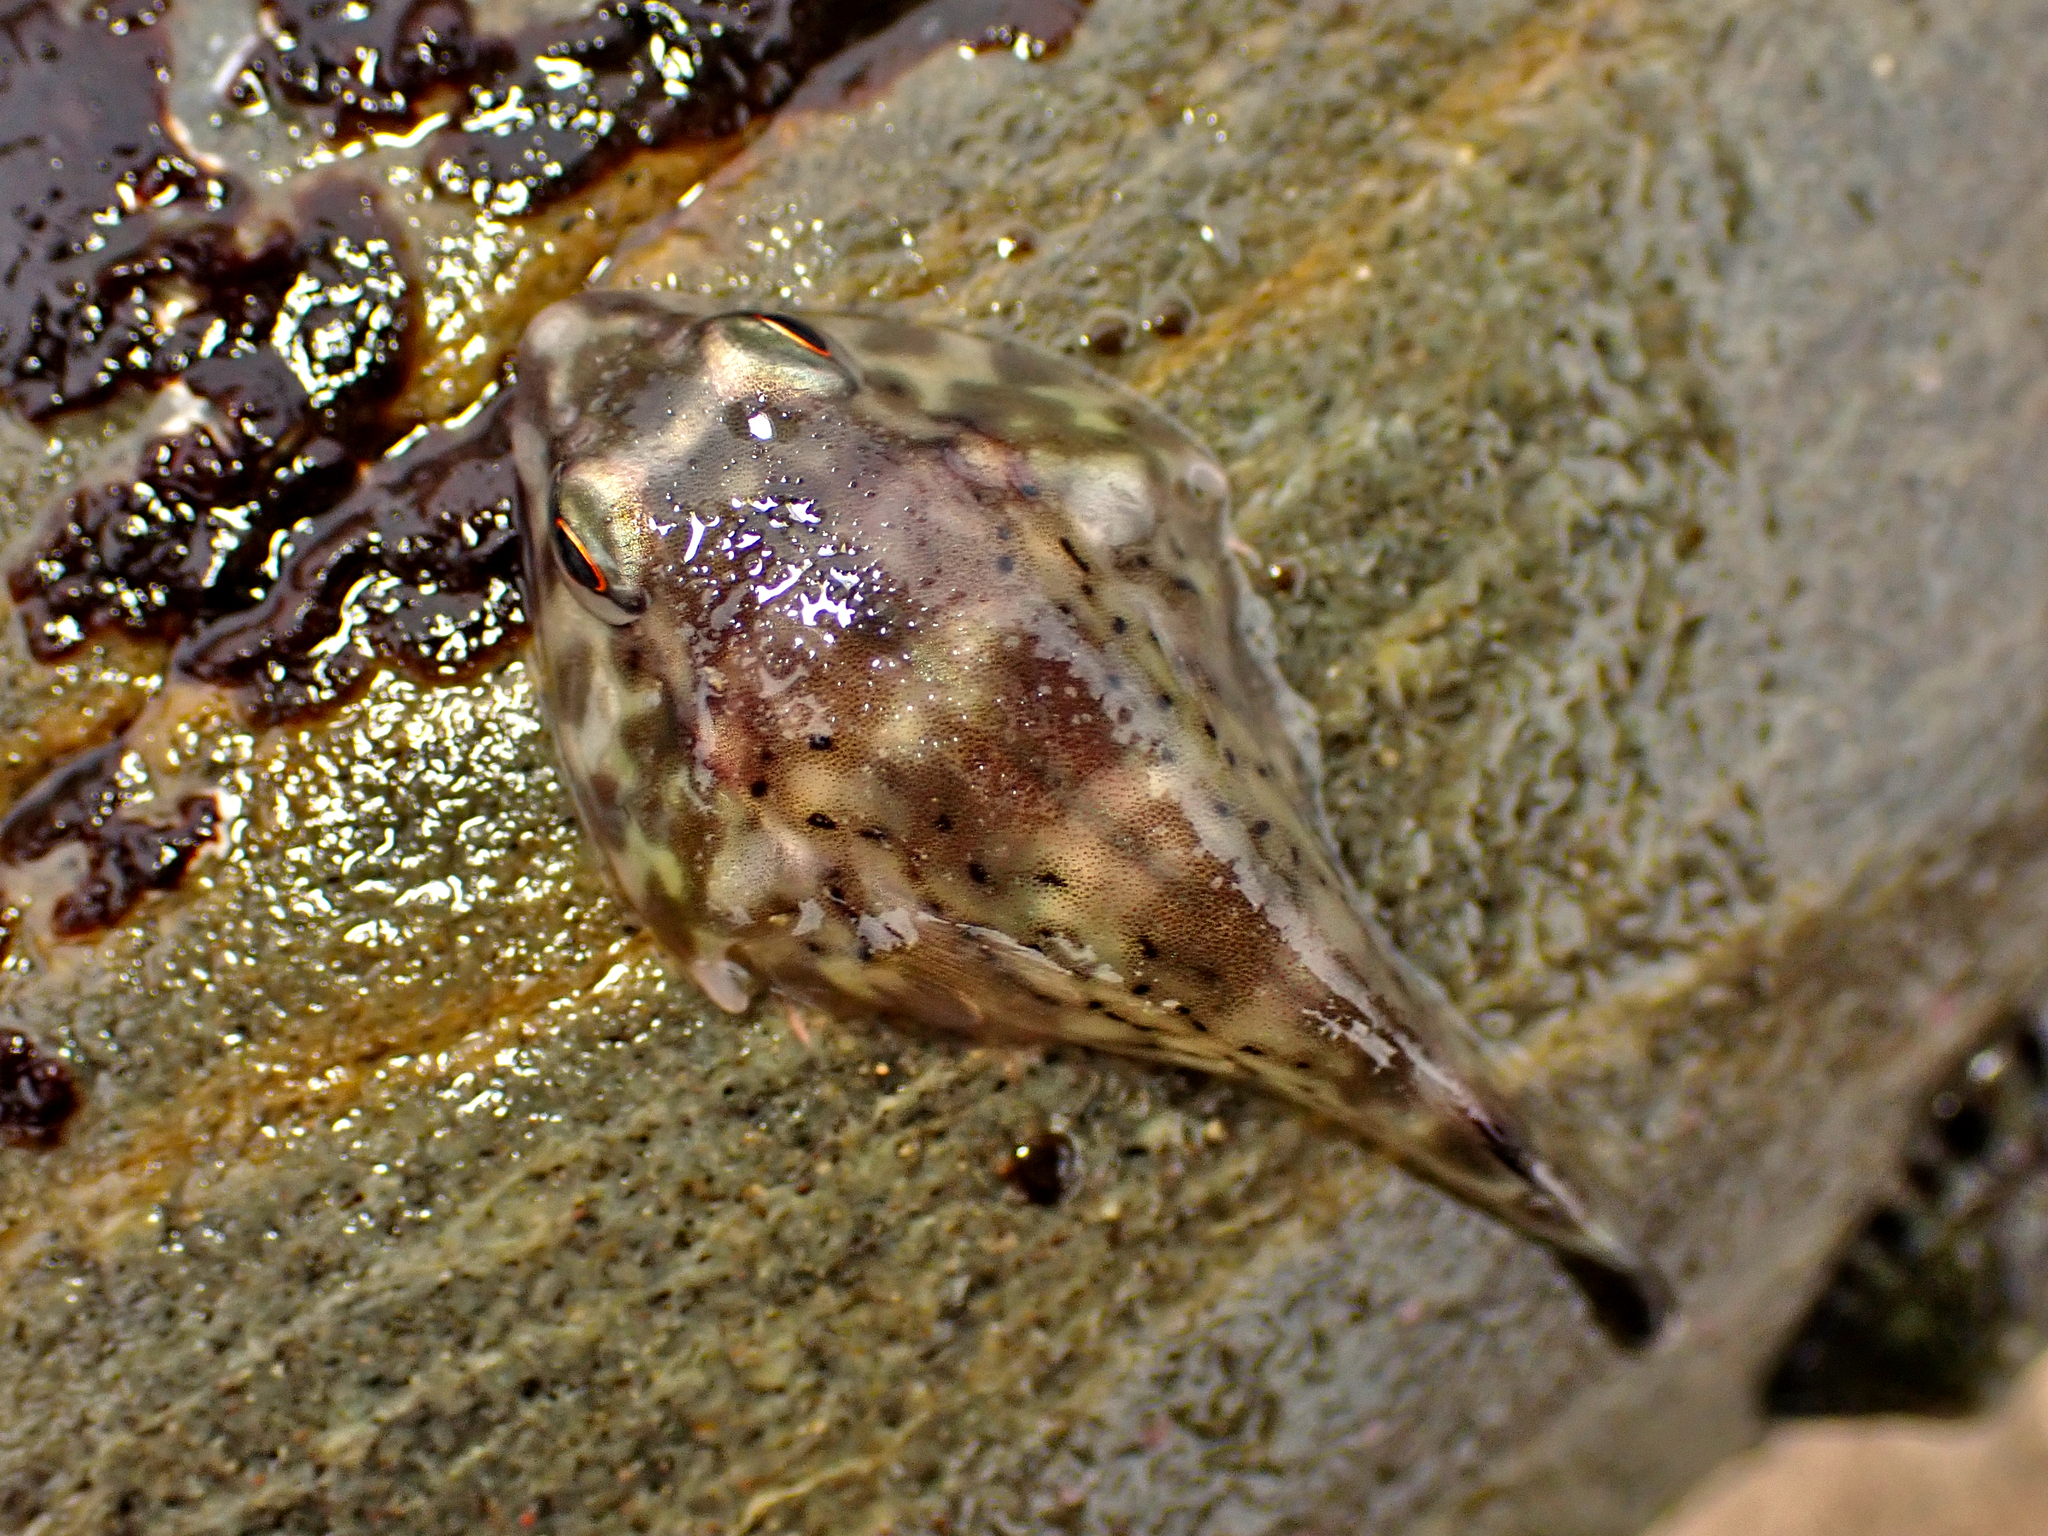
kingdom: Animalia
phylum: Chordata
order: Gobiesociformes
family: Gobiesocidae
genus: Diplocrepis
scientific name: Diplocrepis puniceus
